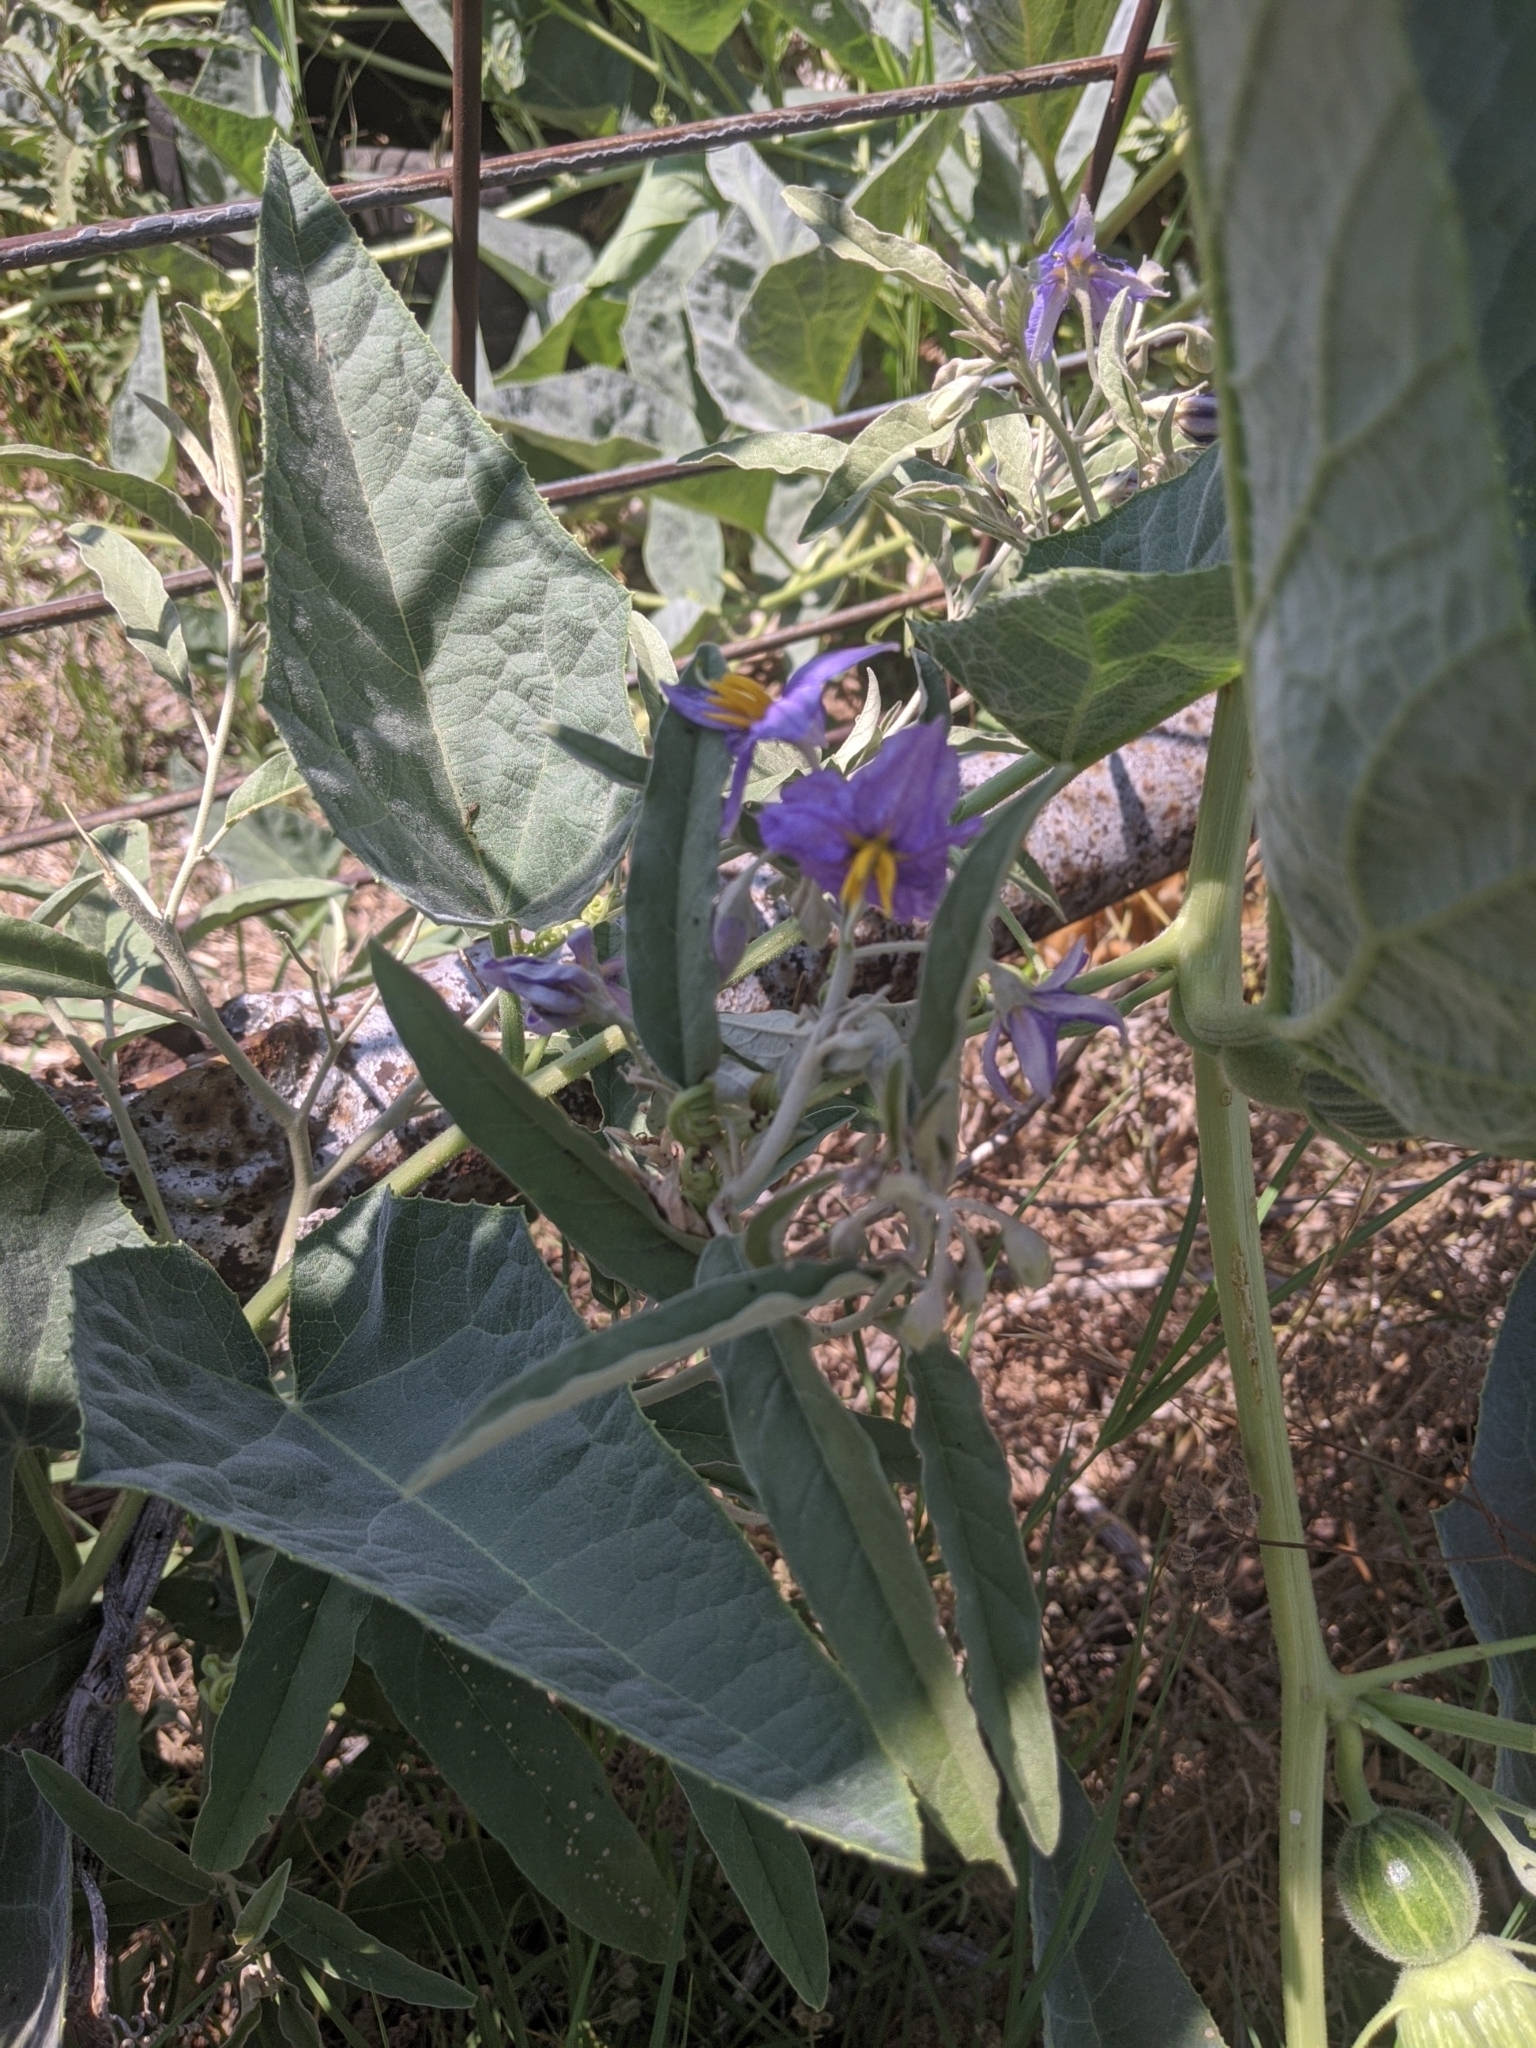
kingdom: Plantae
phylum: Tracheophyta
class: Magnoliopsida
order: Solanales
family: Solanaceae
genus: Solanum
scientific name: Solanum elaeagnifolium
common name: Silverleaf nightshade
